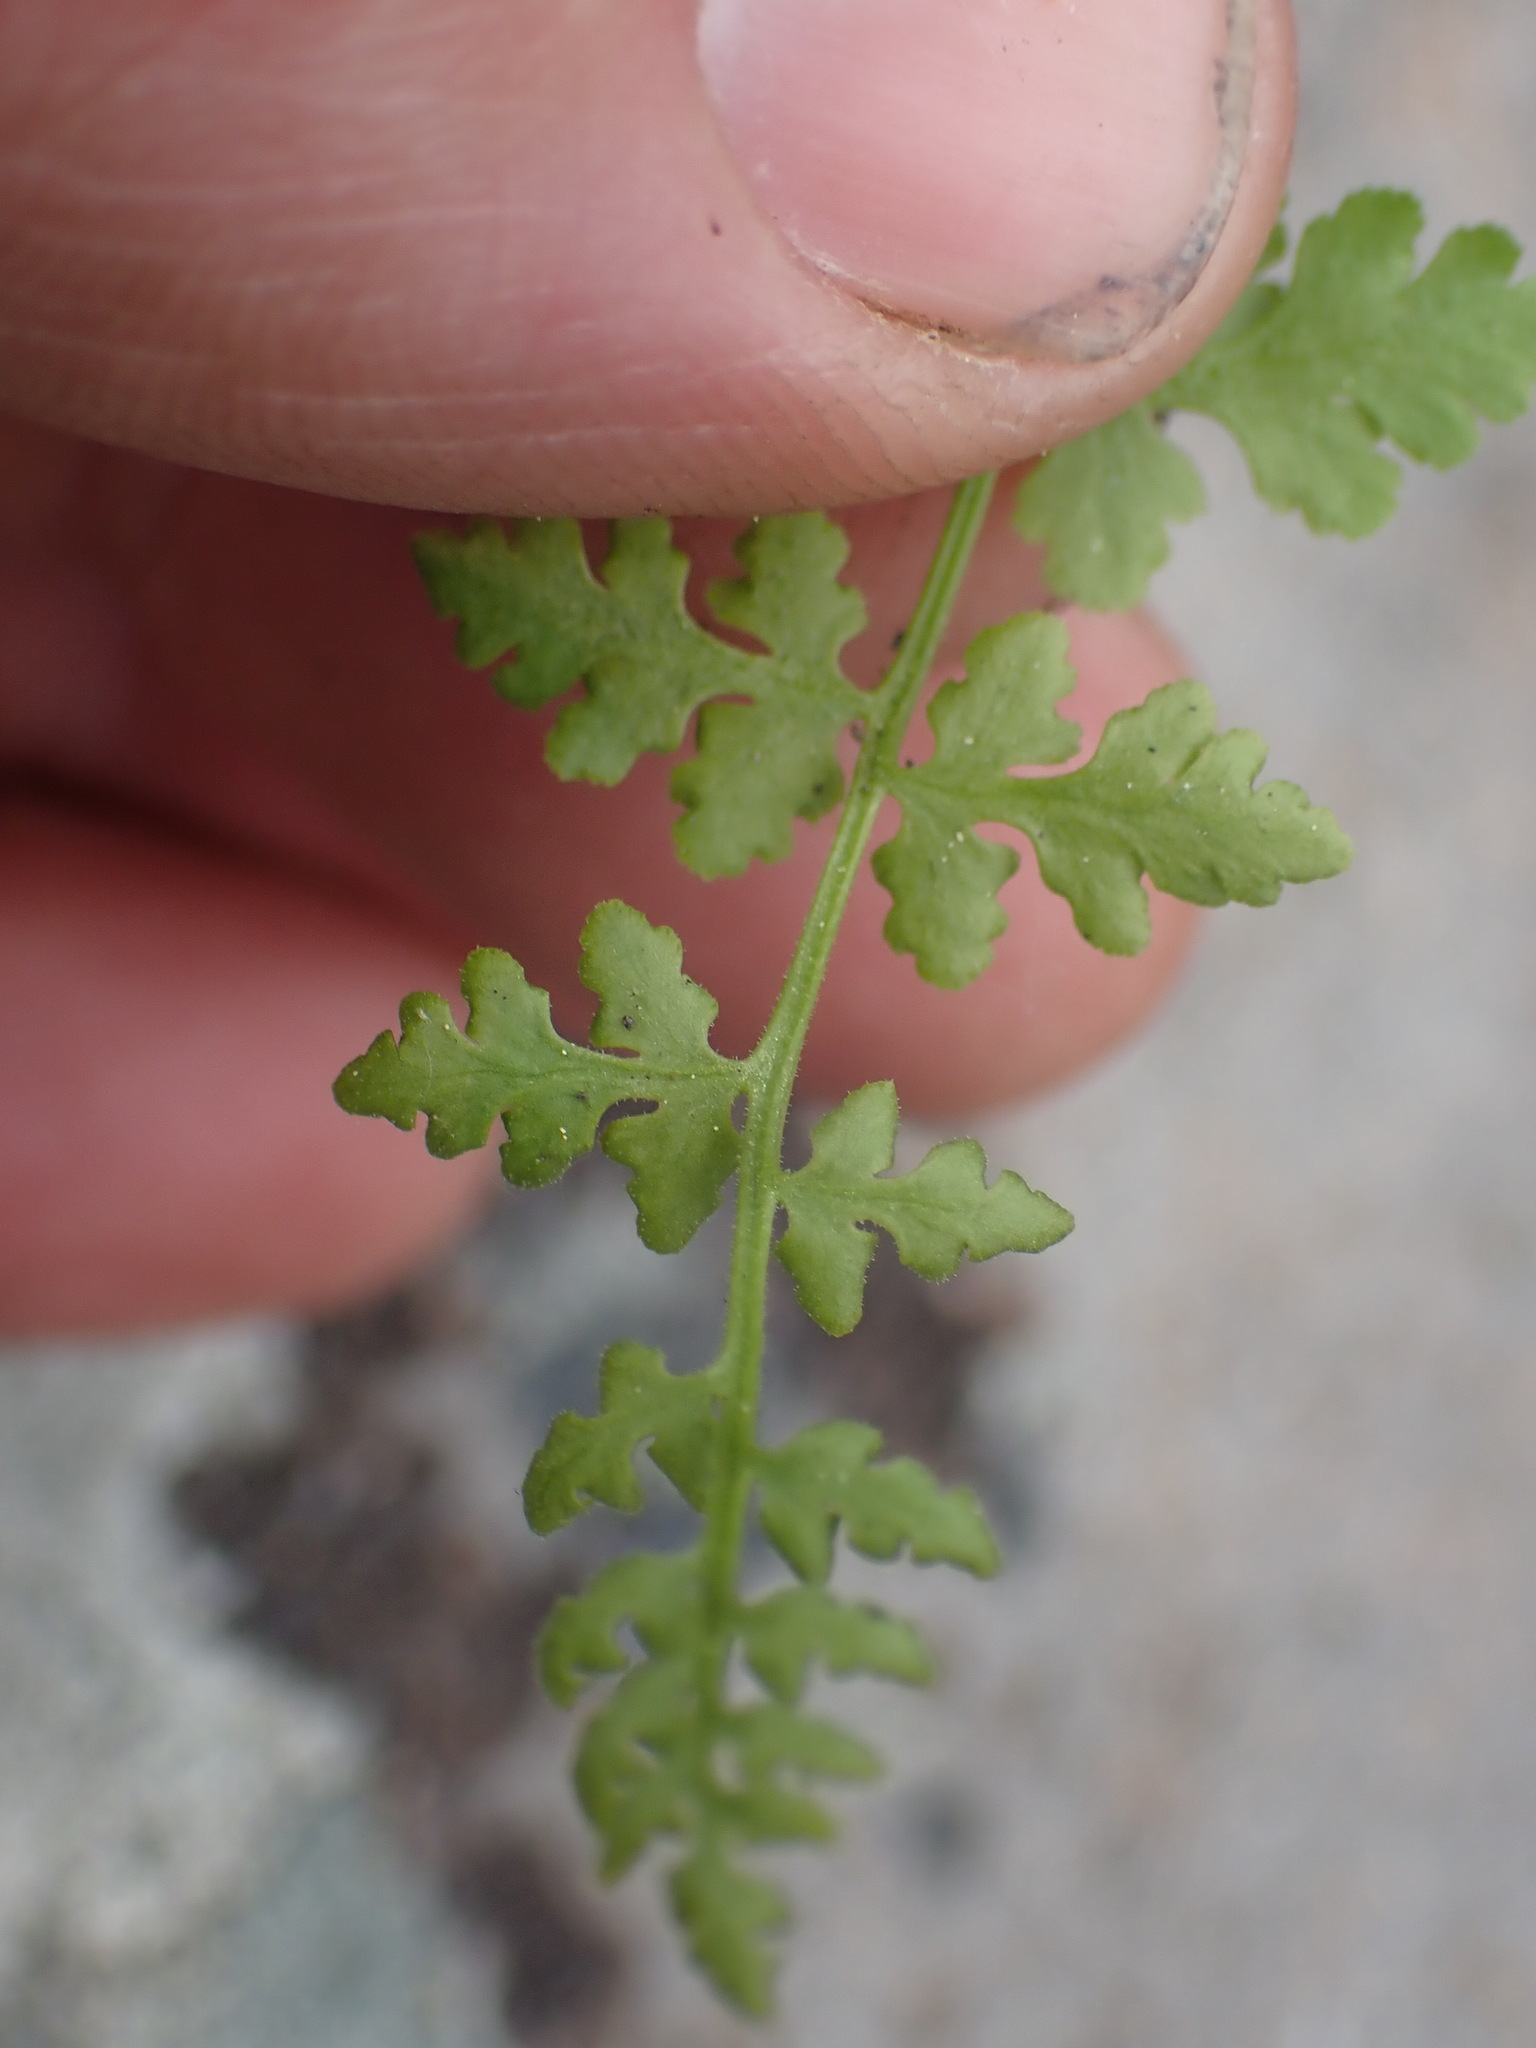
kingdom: Plantae
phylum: Tracheophyta
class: Polypodiopsida
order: Polypodiales
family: Woodsiaceae
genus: Physematium
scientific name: Physematium oreganum
